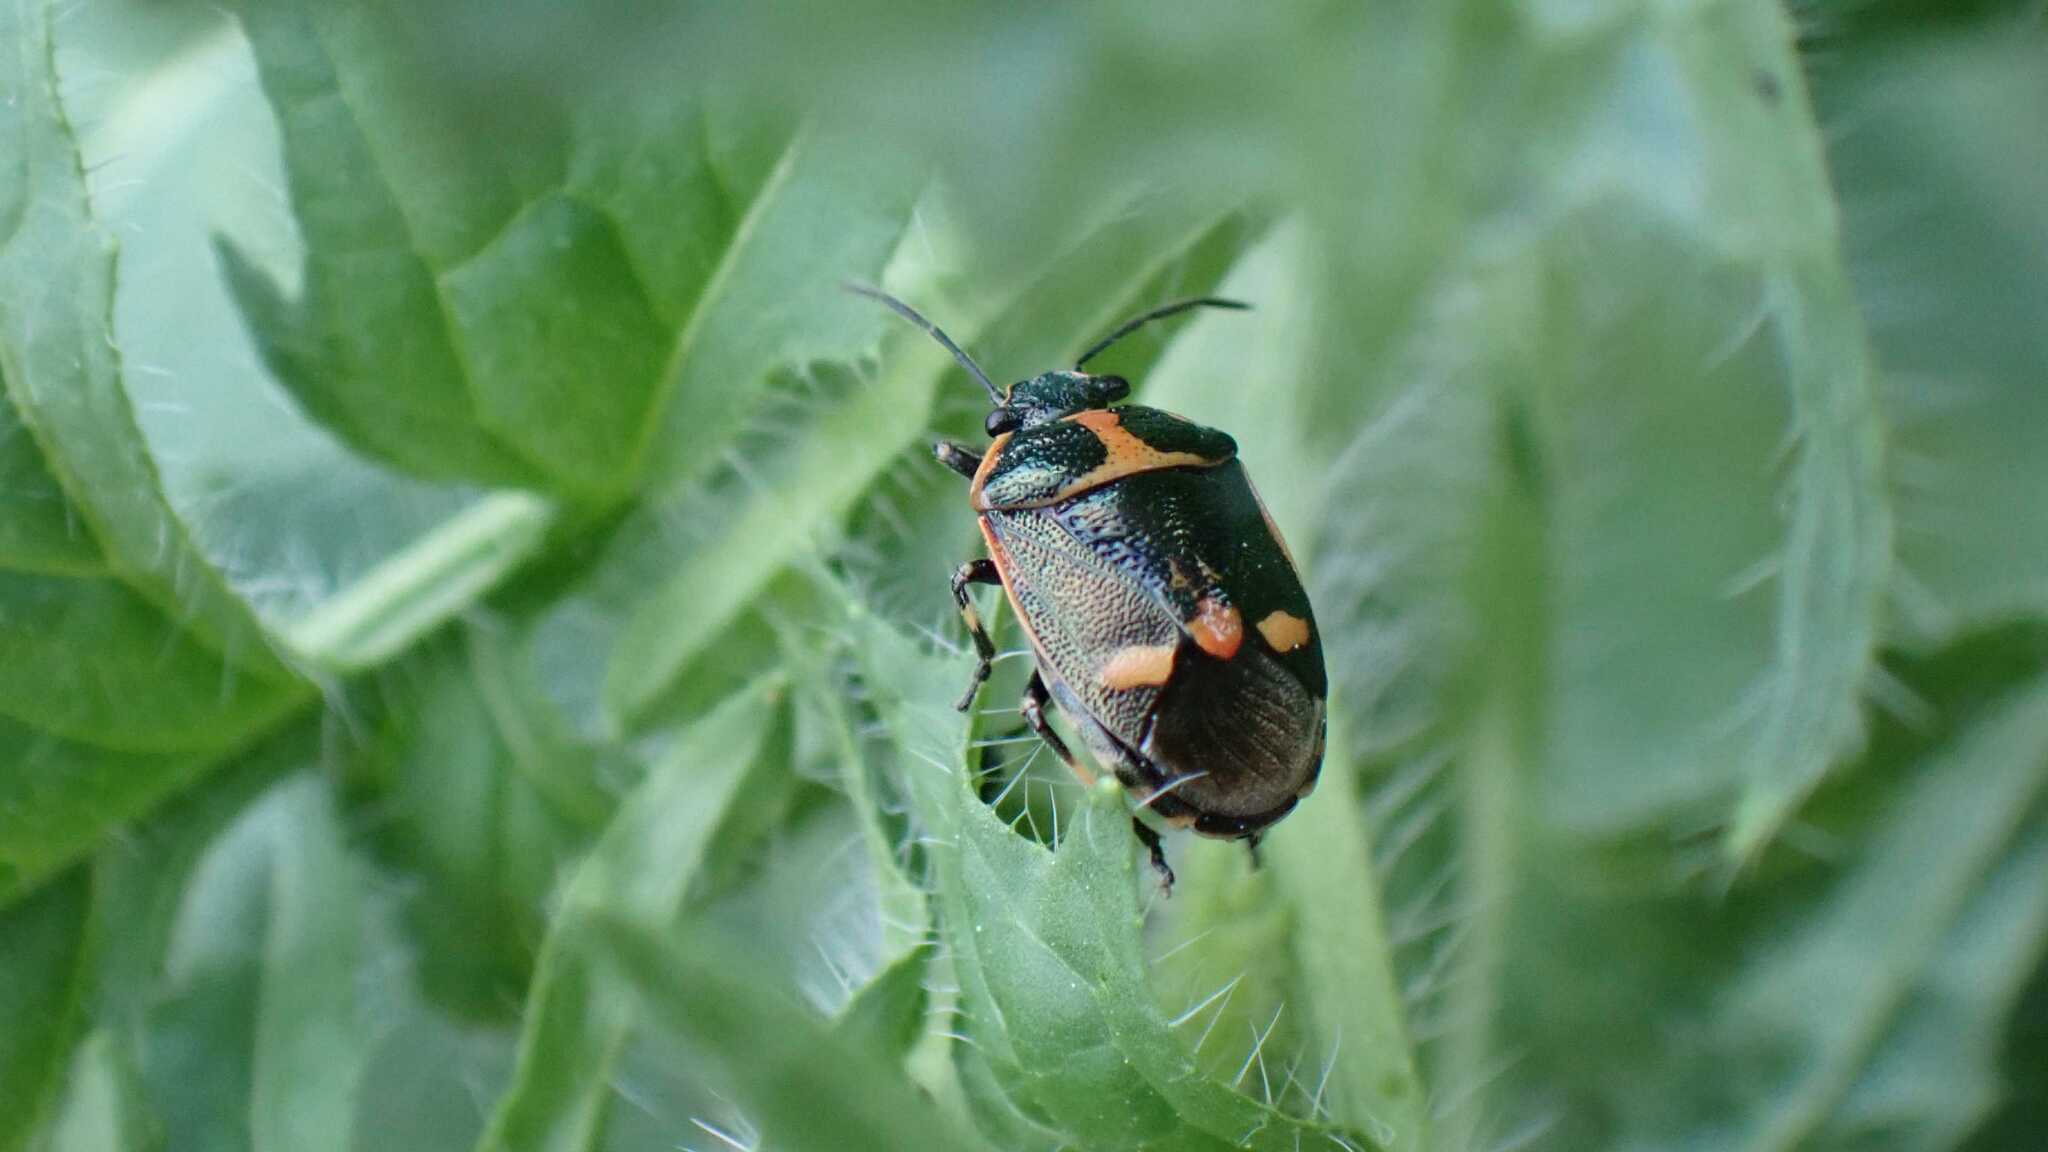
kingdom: Animalia
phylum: Arthropoda
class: Insecta
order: Hemiptera
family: Pentatomidae
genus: Eurydema
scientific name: Eurydema oleracea
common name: Cabbage bug
